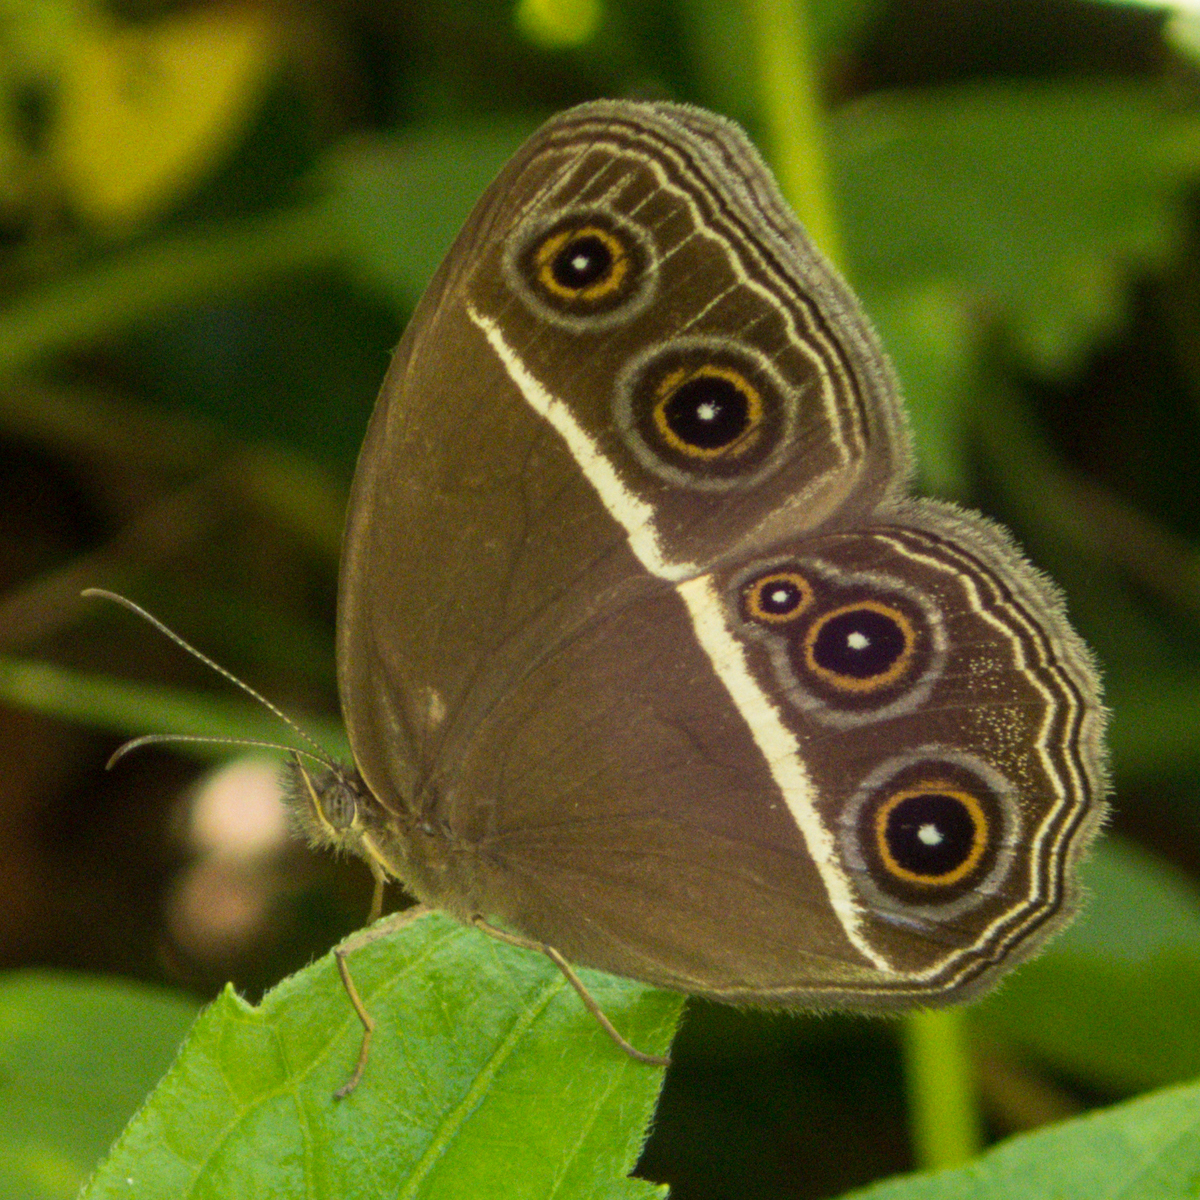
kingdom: Animalia
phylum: Arthropoda
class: Insecta
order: Lepidoptera
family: Nymphalidae
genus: Orsotriaena
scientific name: Orsotriaena medus
